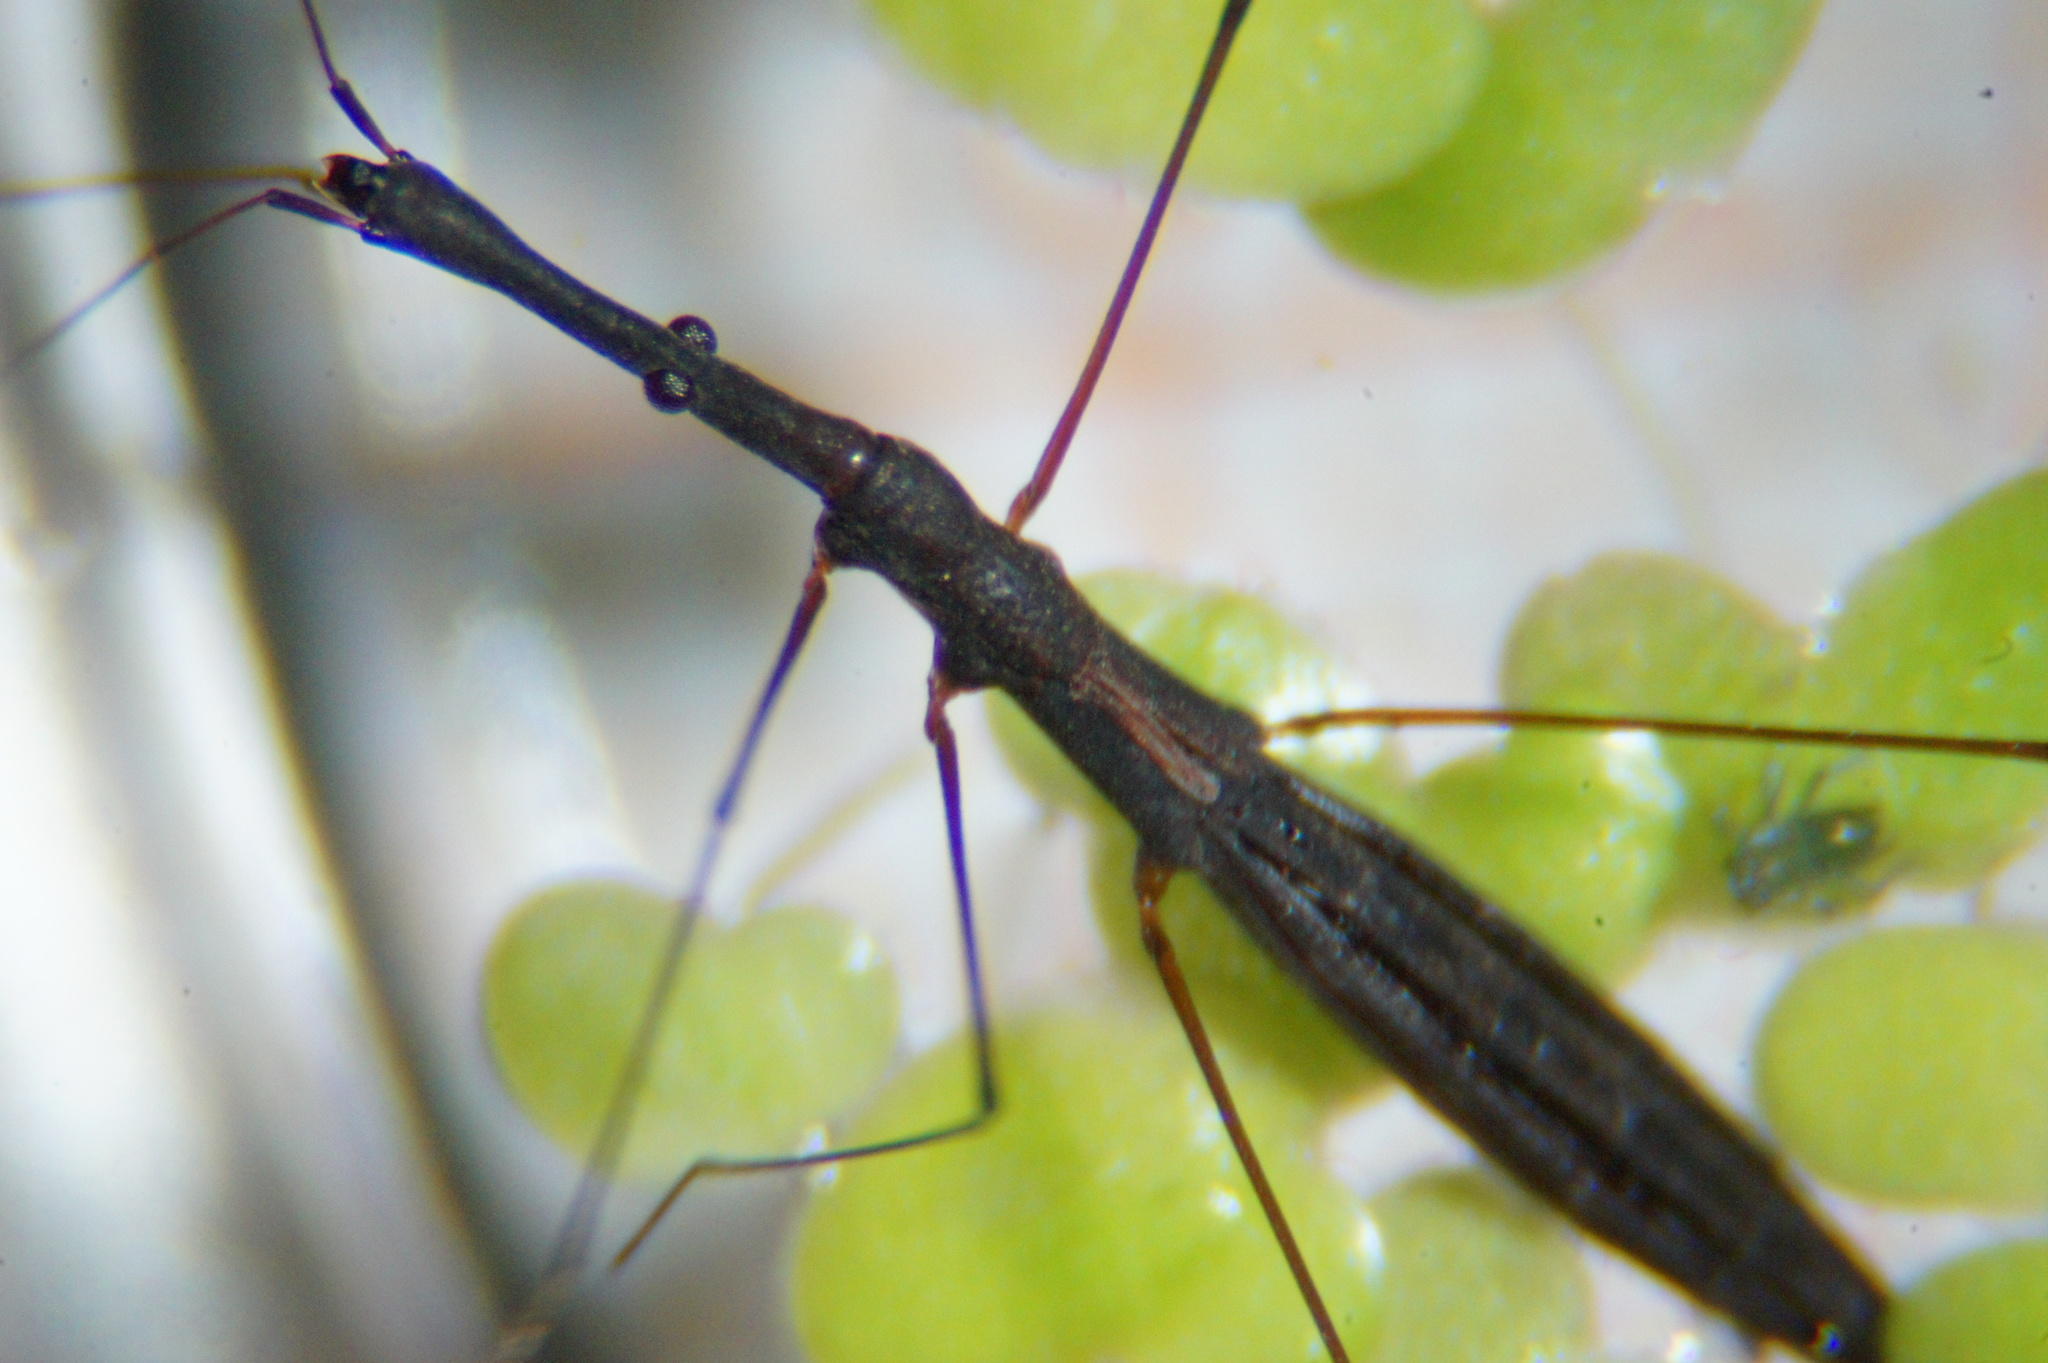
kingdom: Animalia
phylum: Arthropoda
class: Insecta
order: Hemiptera
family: Hydrometridae
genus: Hydrometra
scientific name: Hydrometra stagnorum
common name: Water measurer
